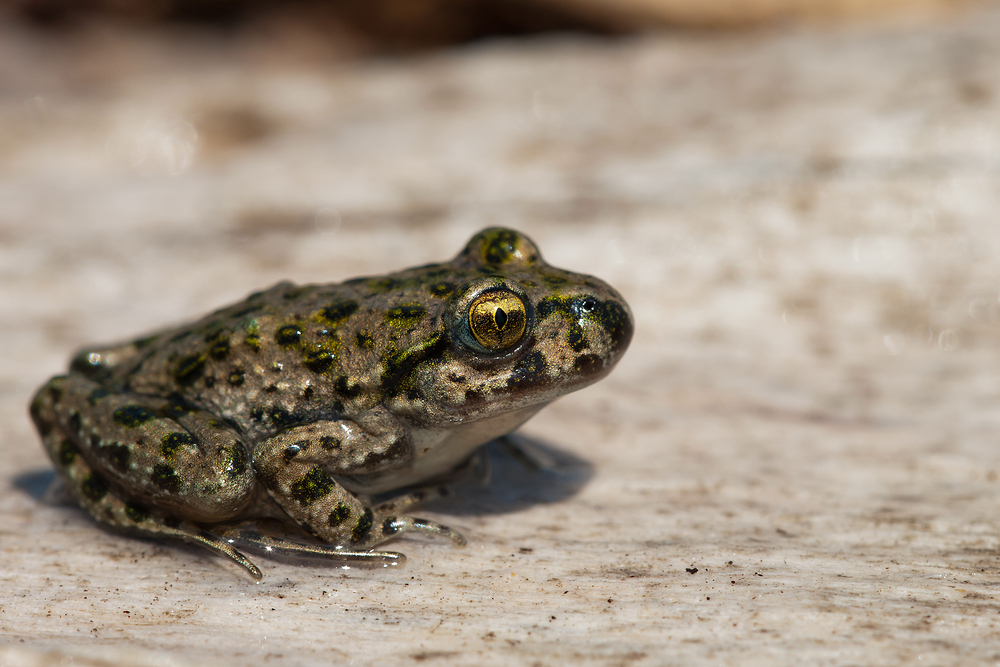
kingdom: Animalia
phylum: Chordata
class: Amphibia
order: Anura
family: Pelodytidae
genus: Pelodytes
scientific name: Pelodytes punctatus
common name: Parsley frog
